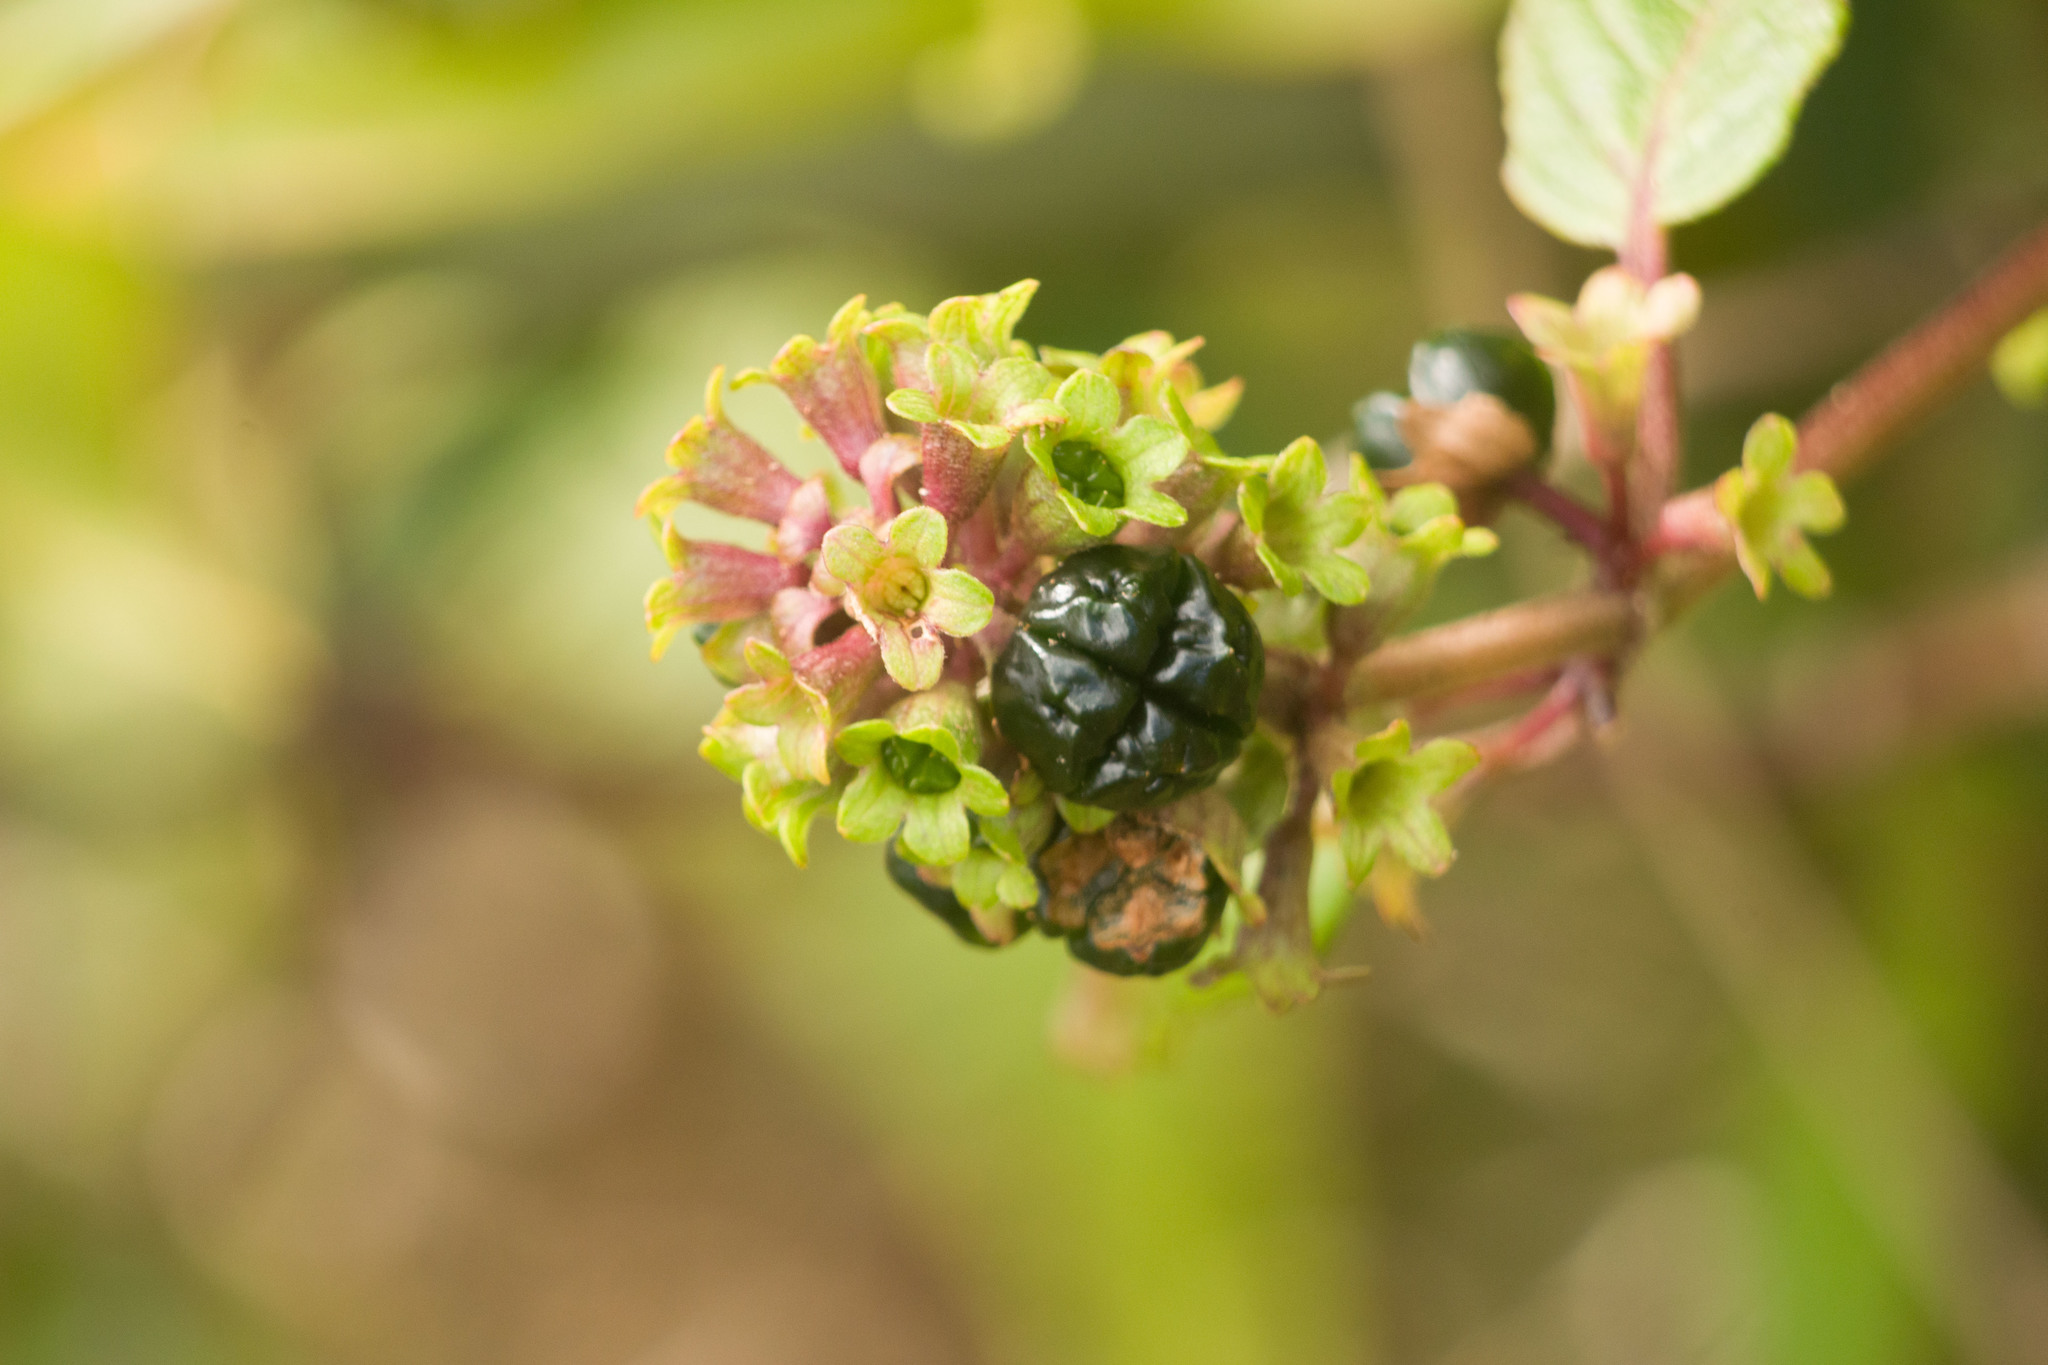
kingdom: Plantae
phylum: Tracheophyta
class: Magnoliopsida
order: Lamiales
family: Lamiaceae
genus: Phyllostegia
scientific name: Phyllostegia grandiflora
